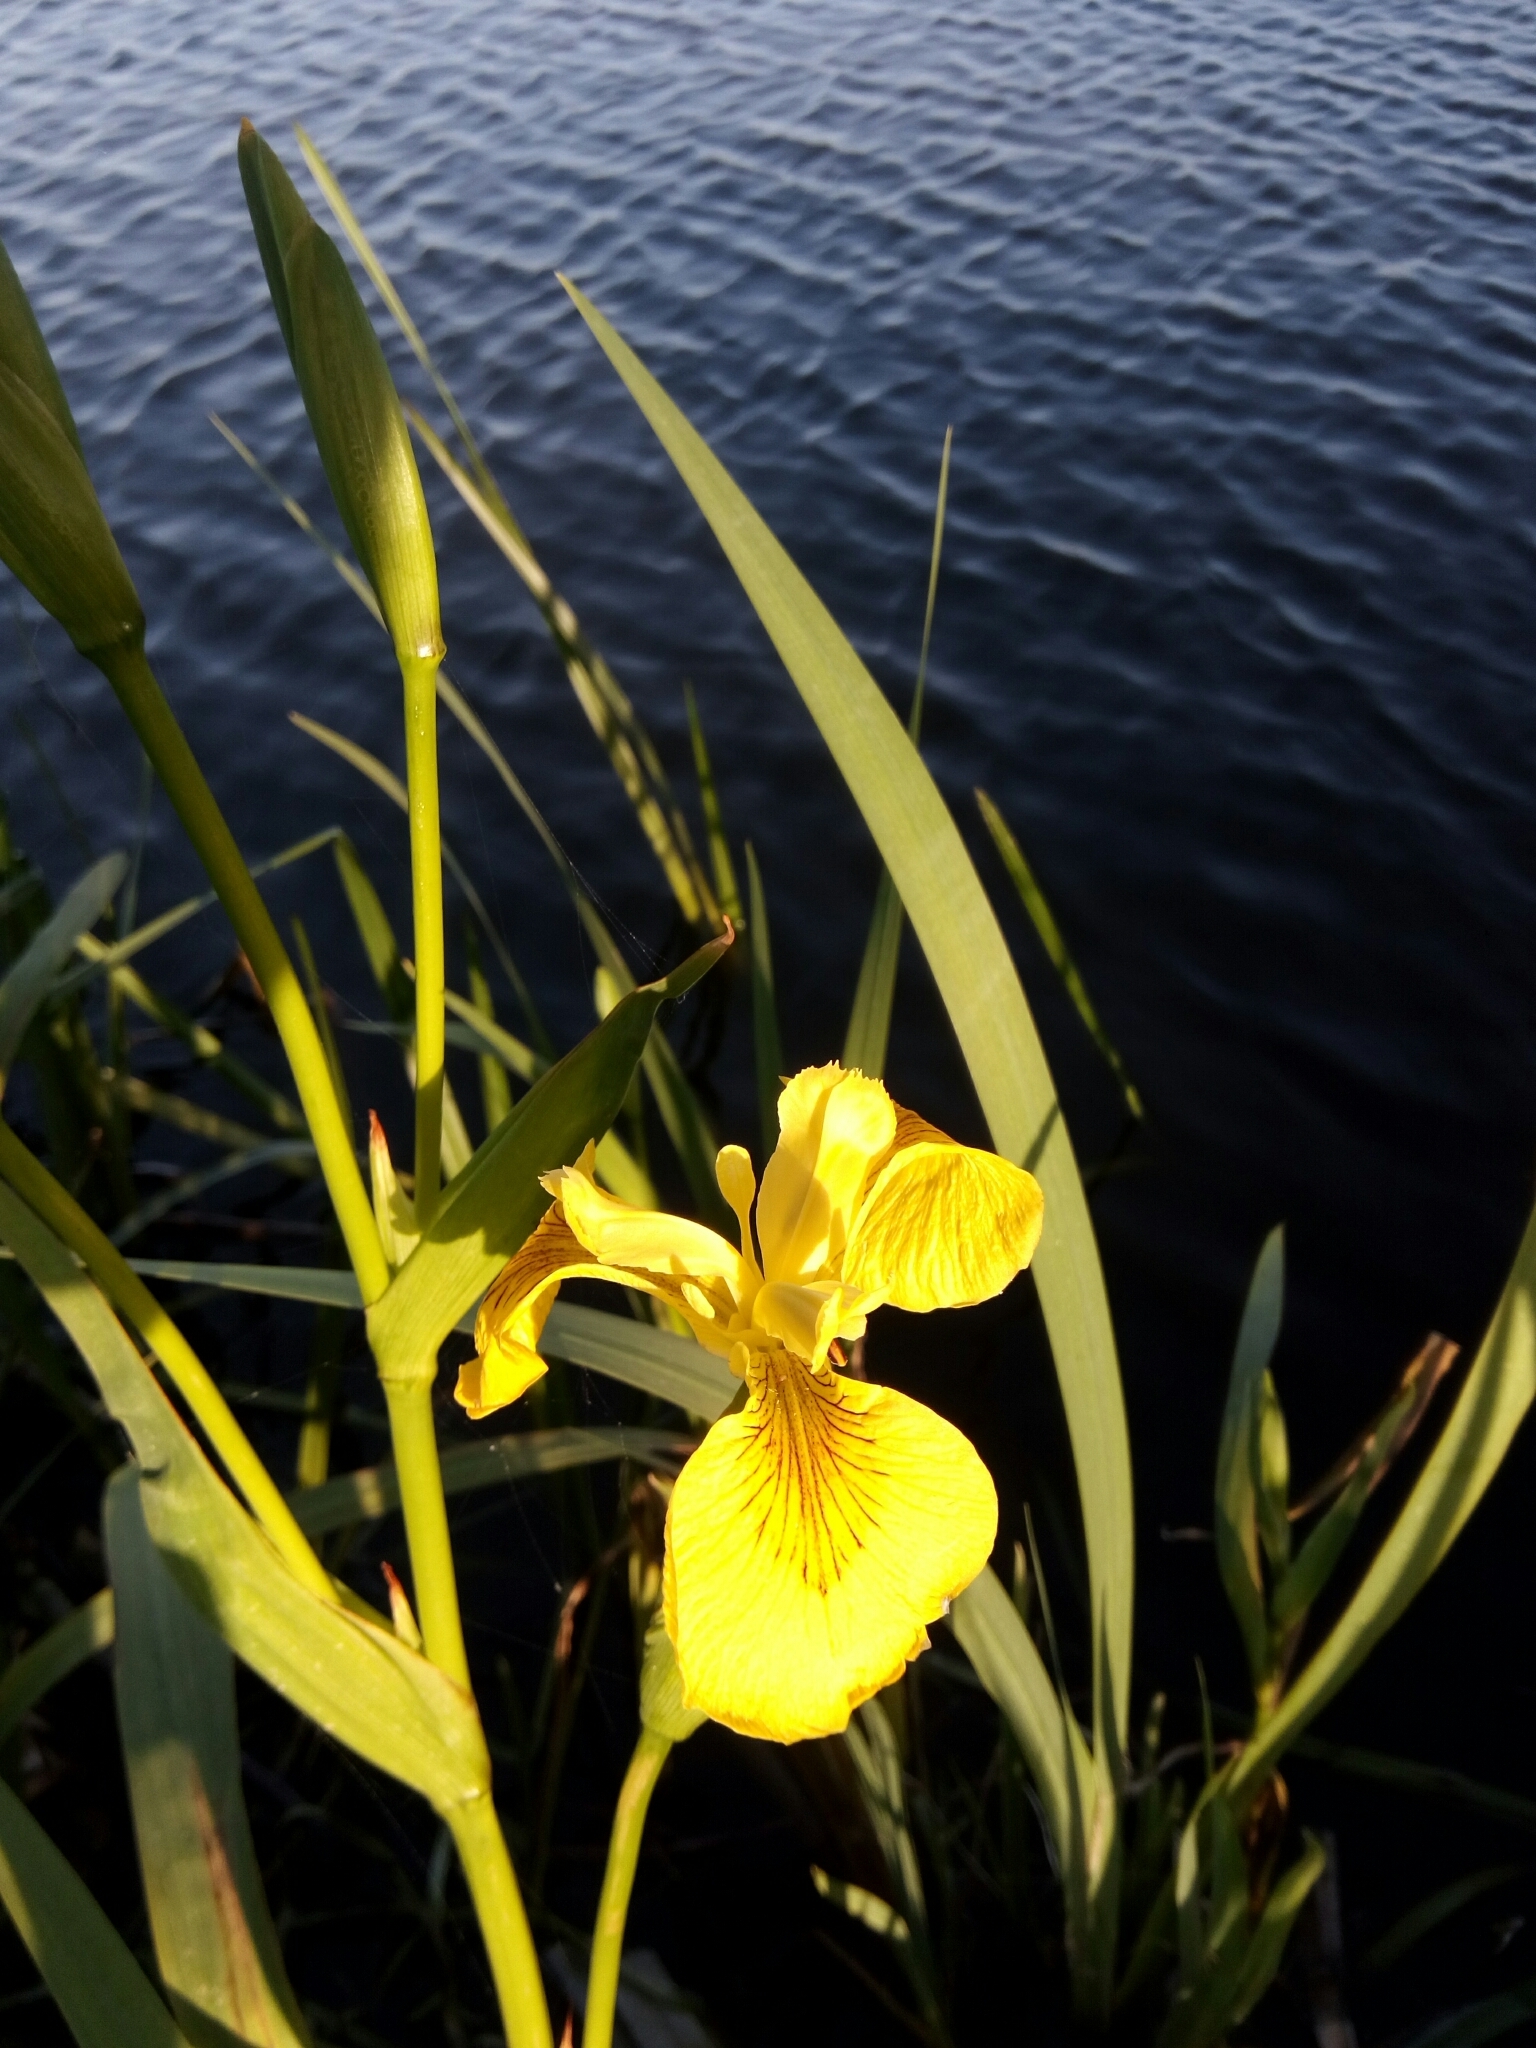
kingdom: Plantae
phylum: Tracheophyta
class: Liliopsida
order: Asparagales
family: Iridaceae
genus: Iris
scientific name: Iris pseudacorus
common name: Yellow flag
